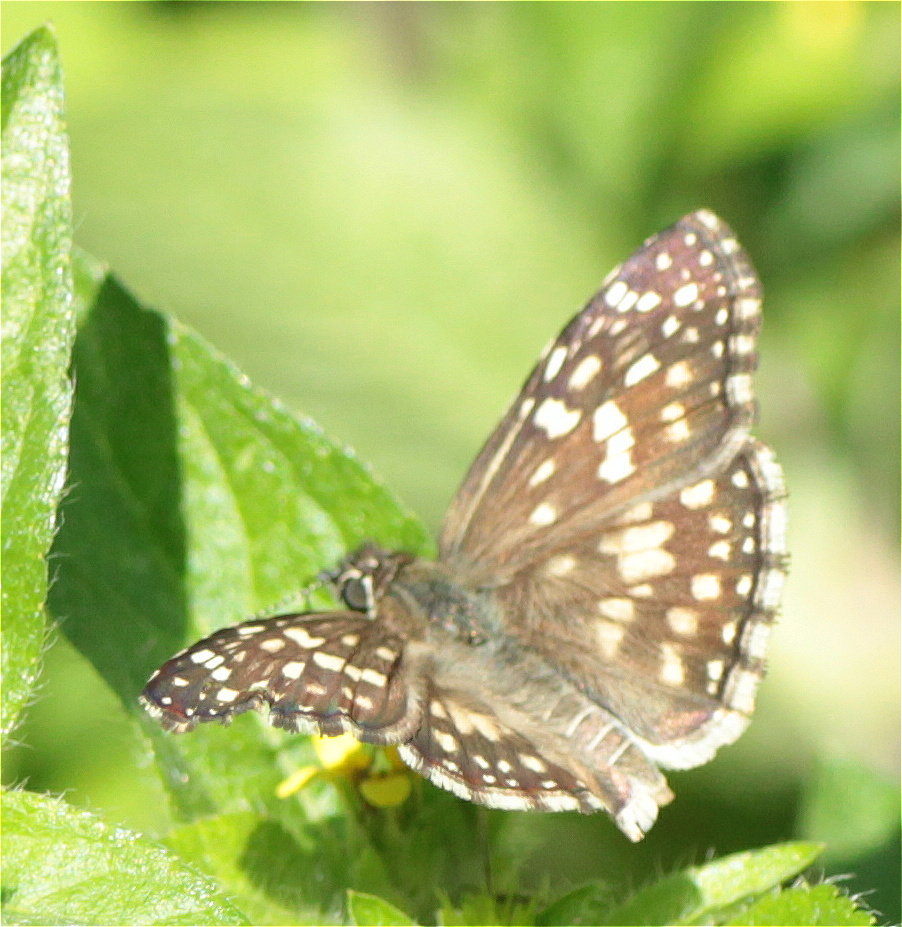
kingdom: Animalia
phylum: Arthropoda
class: Insecta
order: Lepidoptera
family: Hesperiidae
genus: Pyrgus
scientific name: Pyrgus oileus
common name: Tropical checkered-skipper
